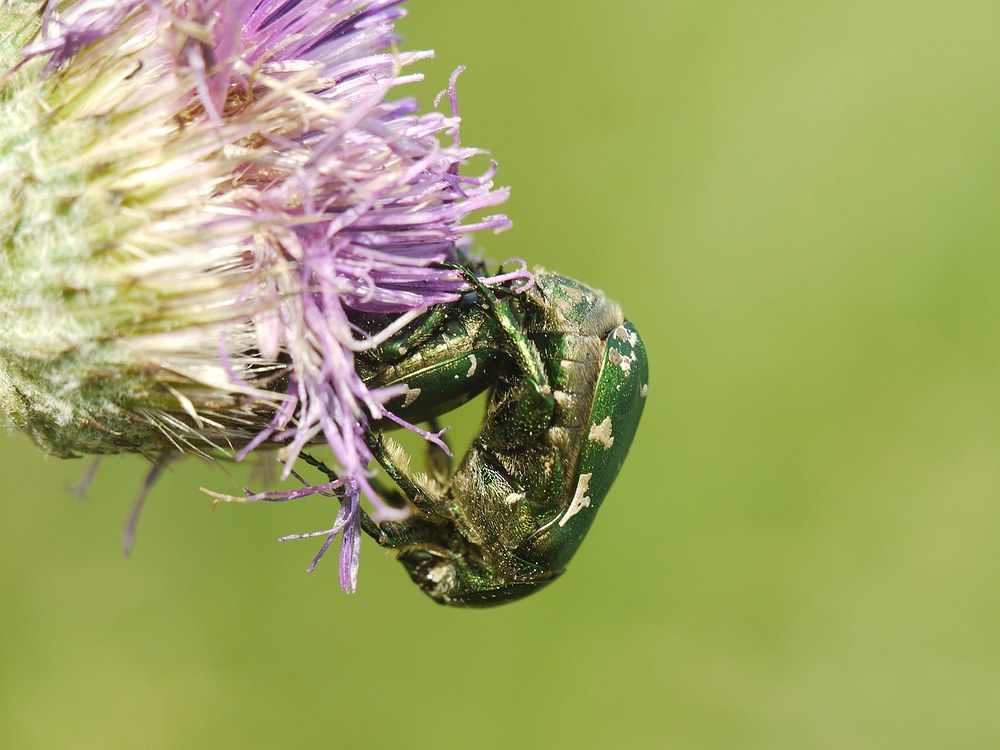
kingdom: Animalia
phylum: Arthropoda
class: Insecta
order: Coleoptera
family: Scarabaeidae
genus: Protaetia
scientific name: Protaetia ungarica
